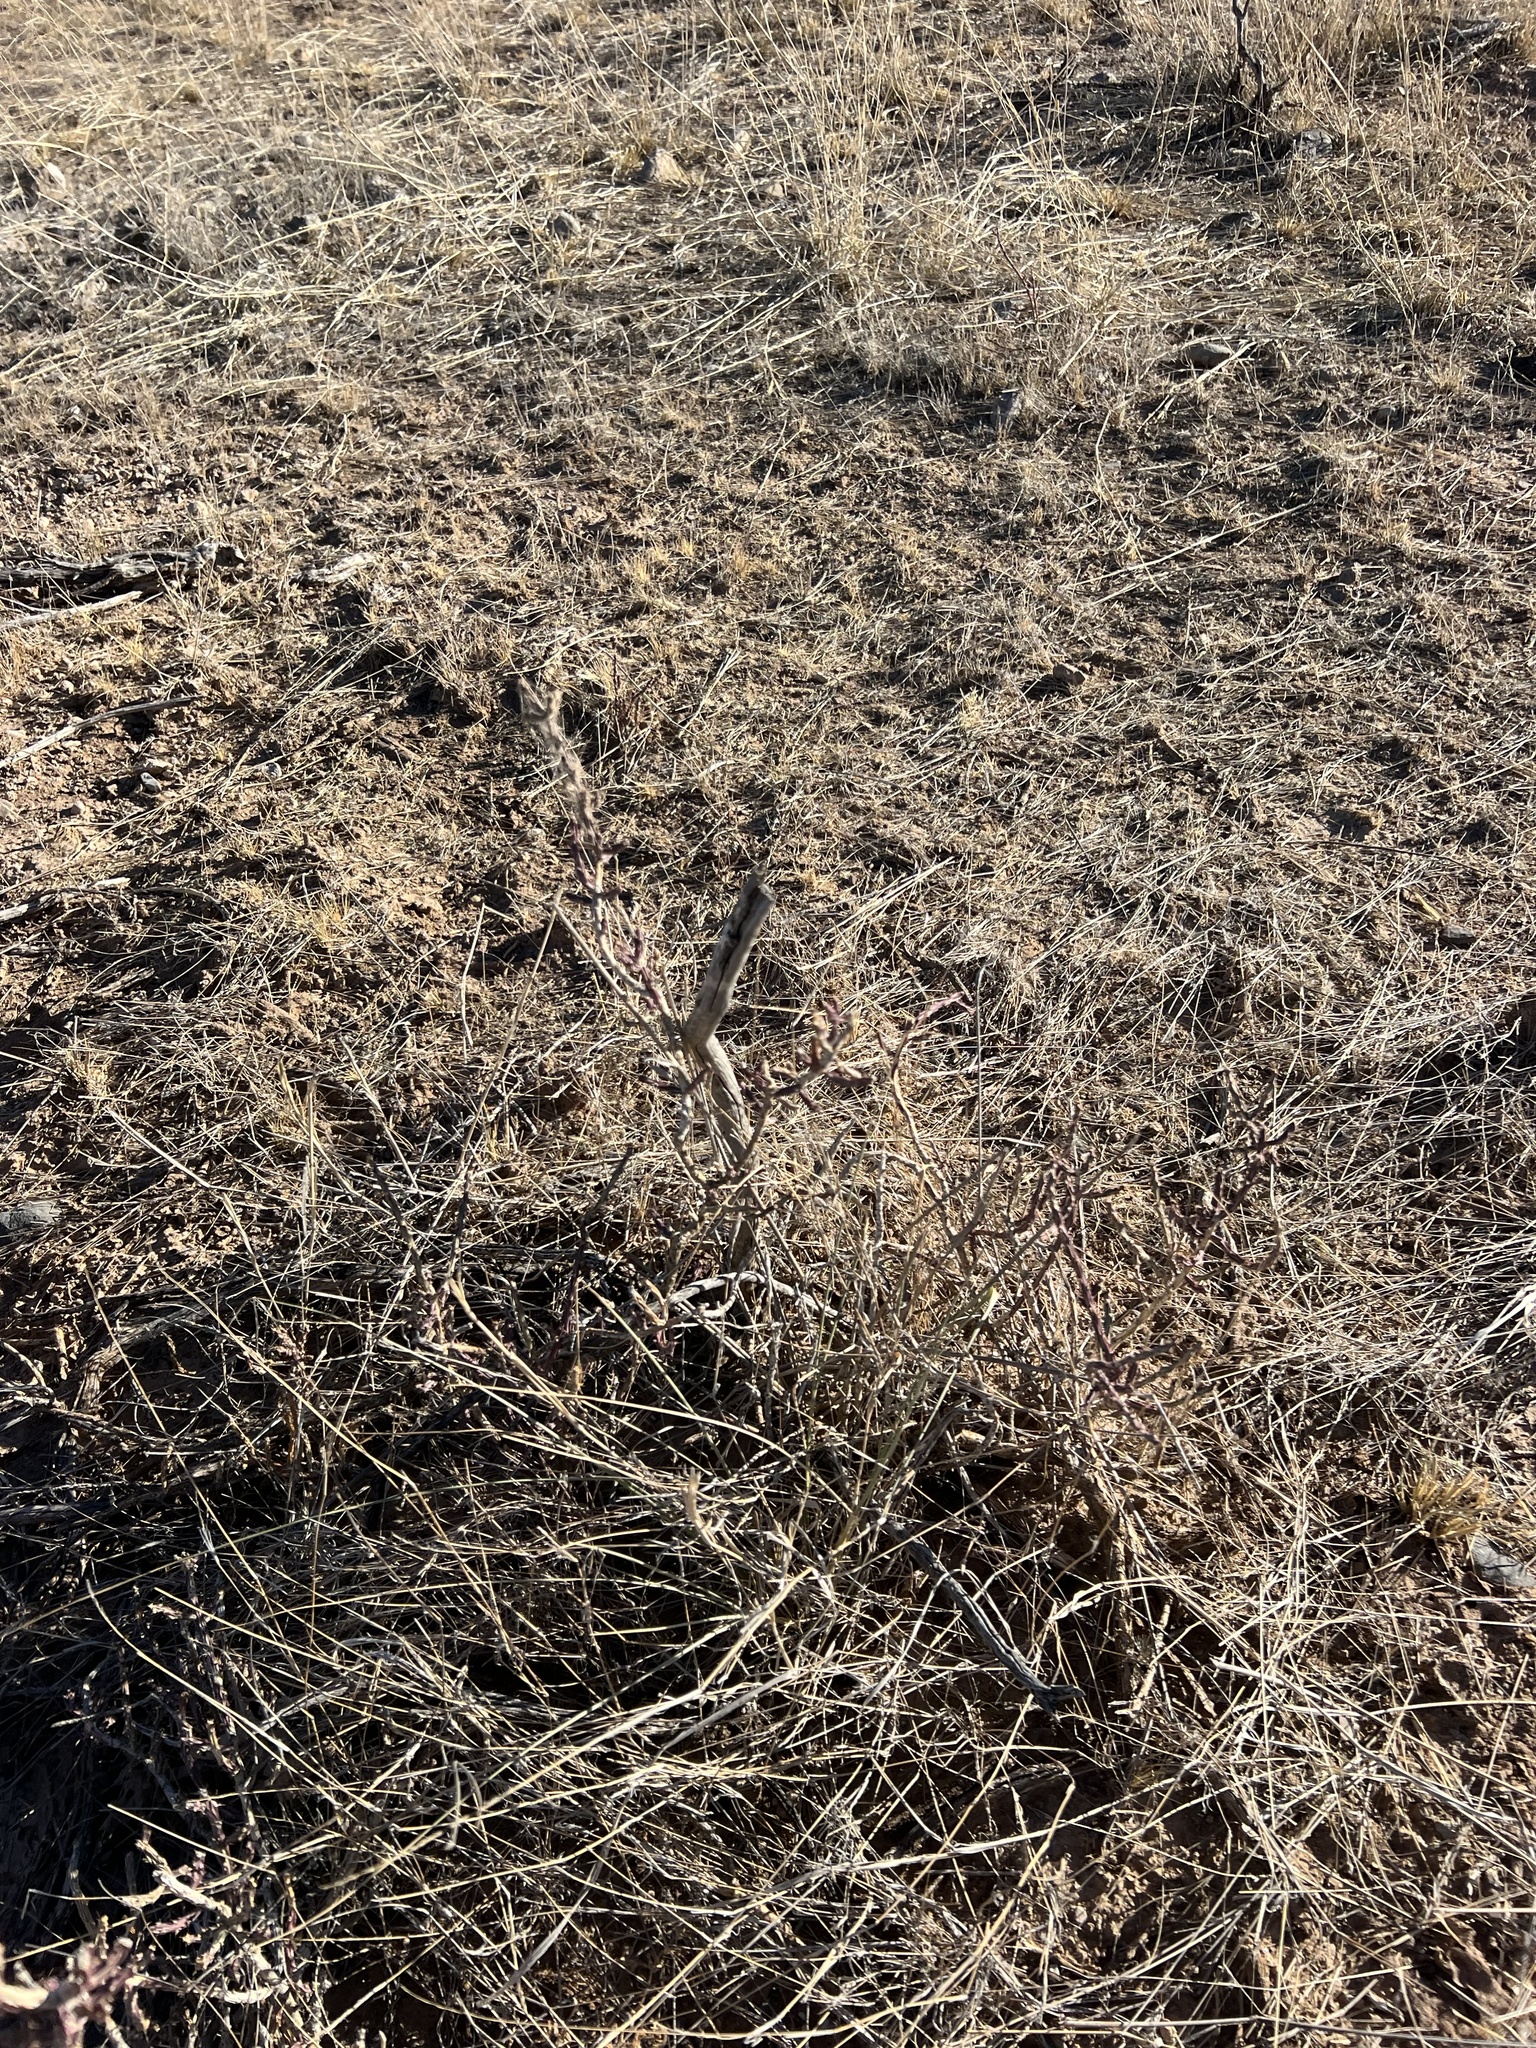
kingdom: Plantae
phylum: Tracheophyta
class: Magnoliopsida
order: Caryophyllales
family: Cactaceae
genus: Cylindropuntia
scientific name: Cylindropuntia leptocaulis
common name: Christmas cactus
